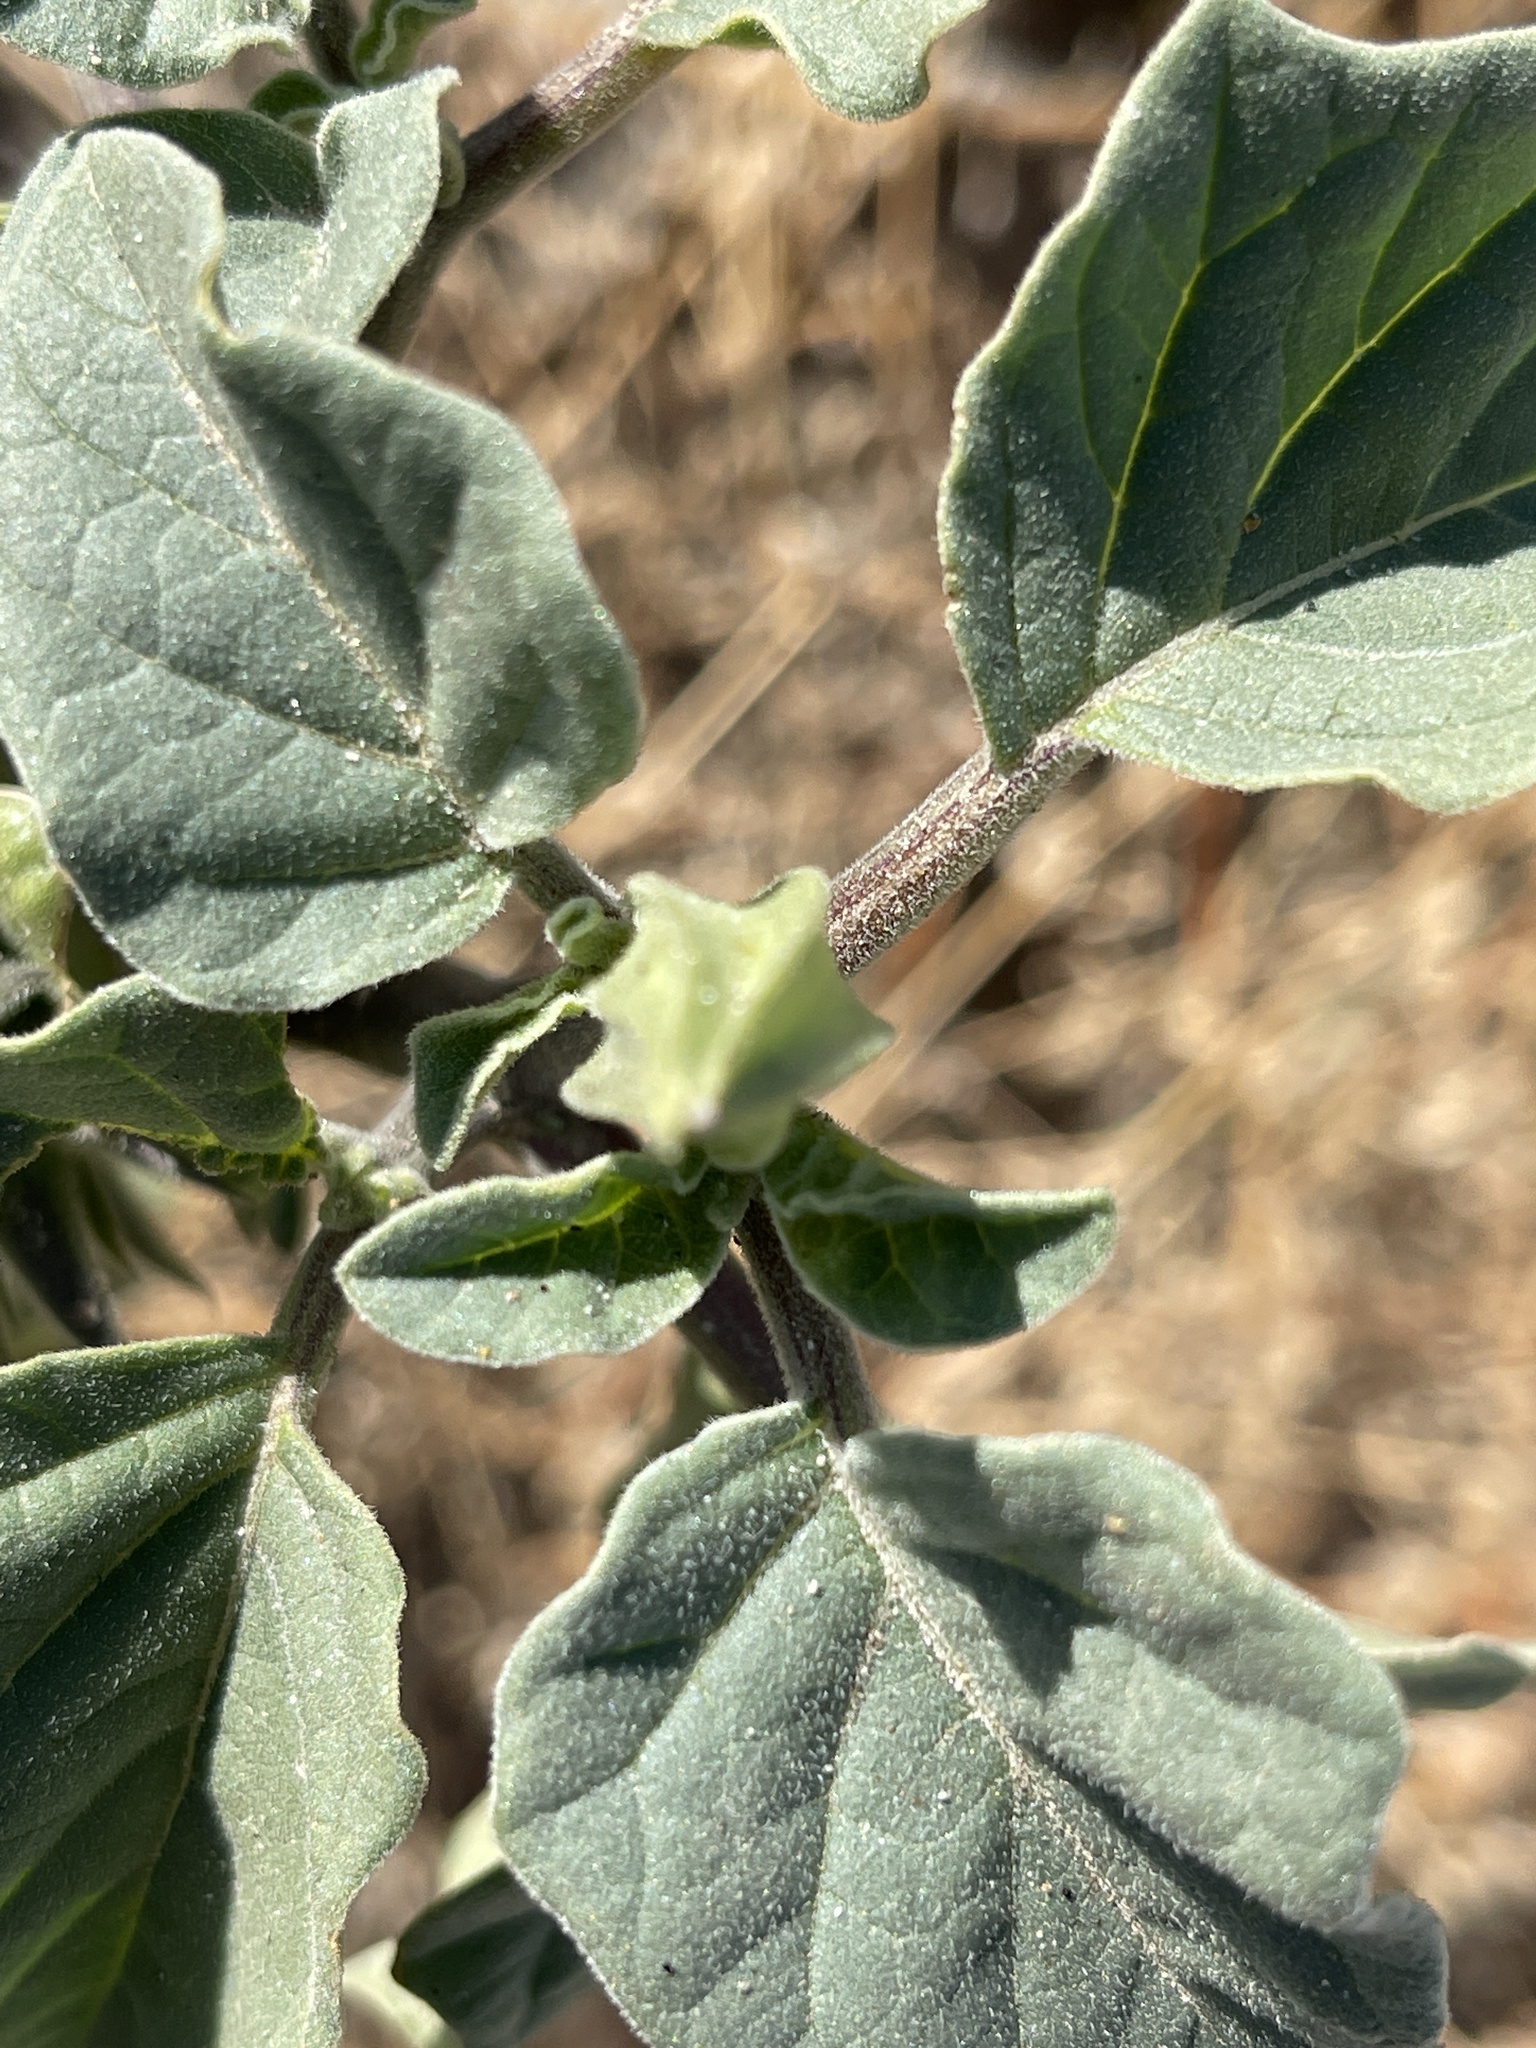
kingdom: Plantae
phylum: Tracheophyta
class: Magnoliopsida
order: Solanales
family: Solanaceae
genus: Datura
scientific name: Datura discolor
